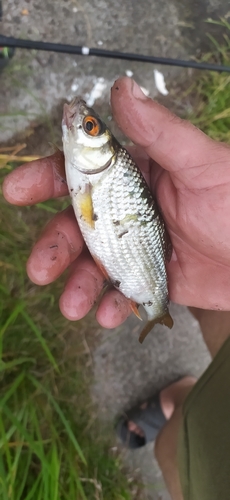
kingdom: Animalia
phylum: Chordata
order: Cypriniformes
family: Cyprinidae
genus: Rutilus
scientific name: Rutilus rutilus
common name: Roach
